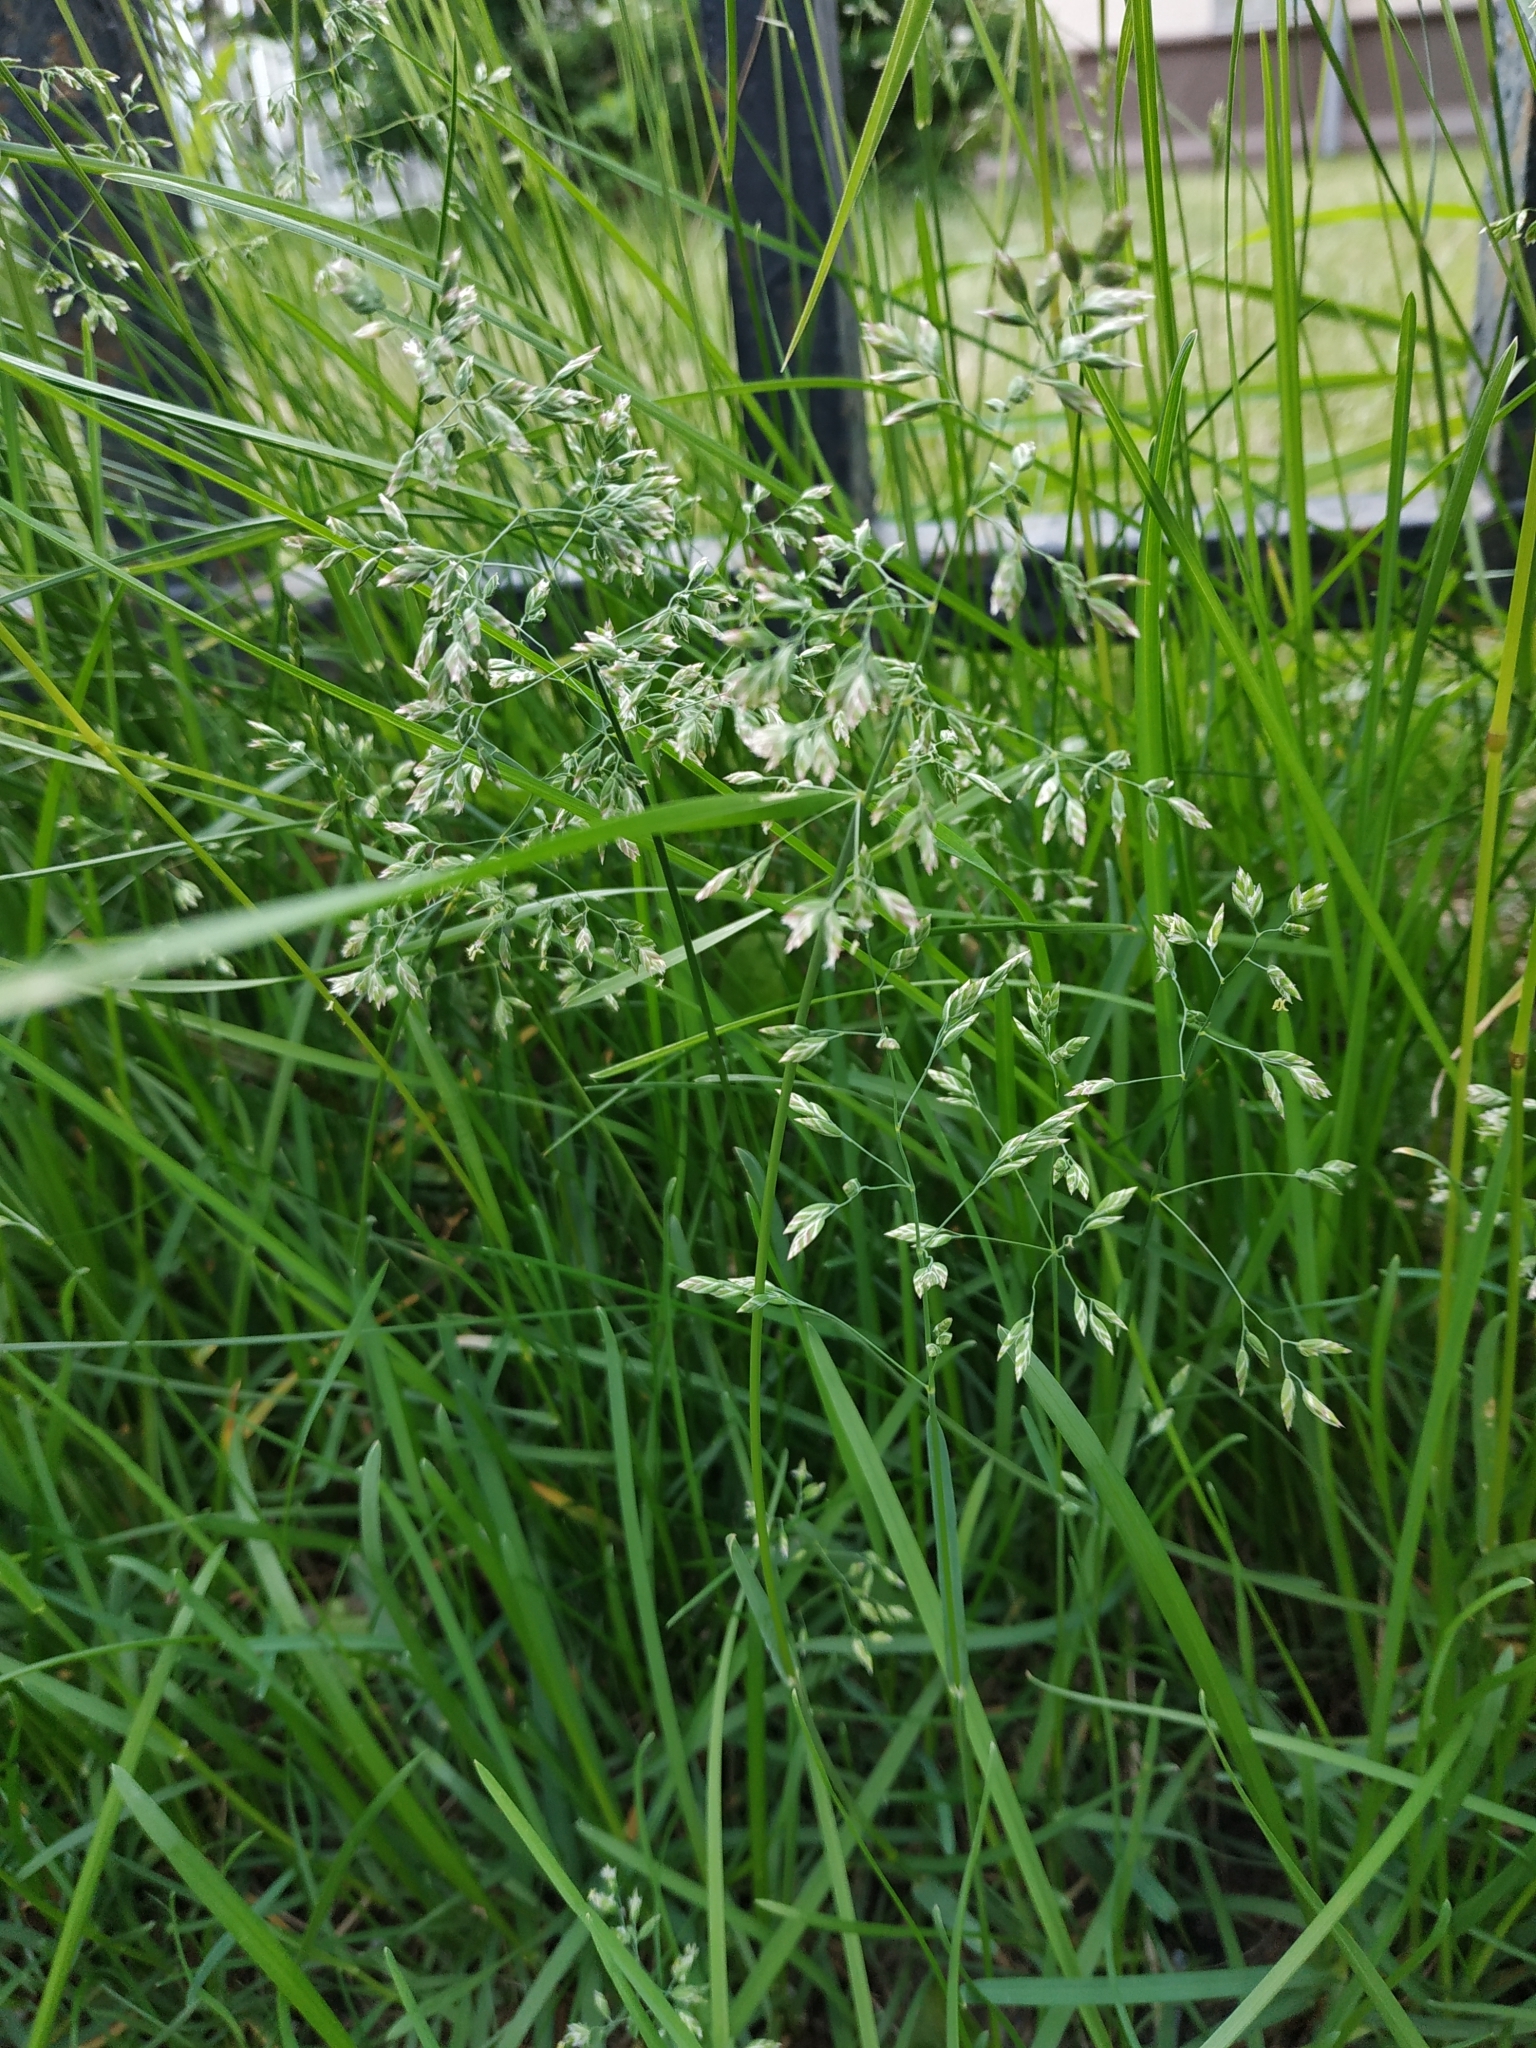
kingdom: Plantae
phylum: Tracheophyta
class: Liliopsida
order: Poales
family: Poaceae
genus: Poa
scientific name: Poa pratensis
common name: Kentucky bluegrass
